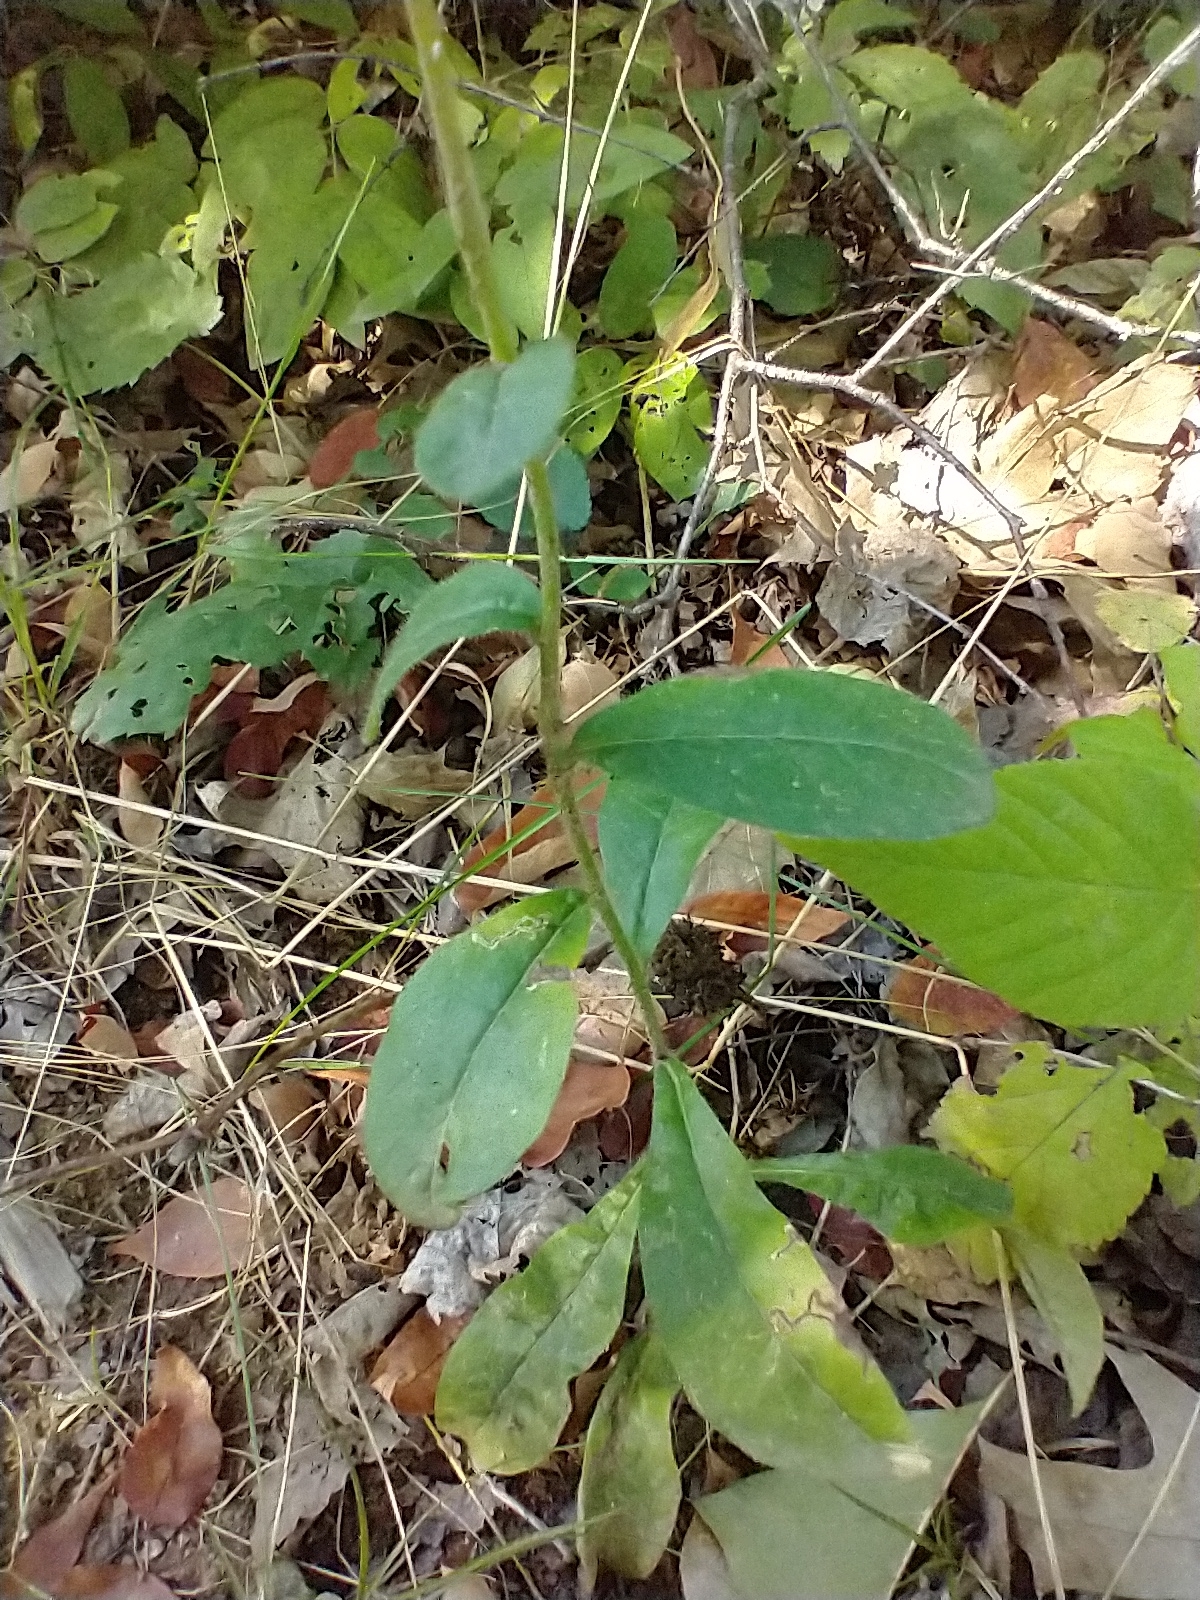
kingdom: Plantae
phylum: Tracheophyta
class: Magnoliopsida
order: Asterales
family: Asteraceae
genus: Hieracium
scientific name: Hieracium scabrum
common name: Rough hawkweed
